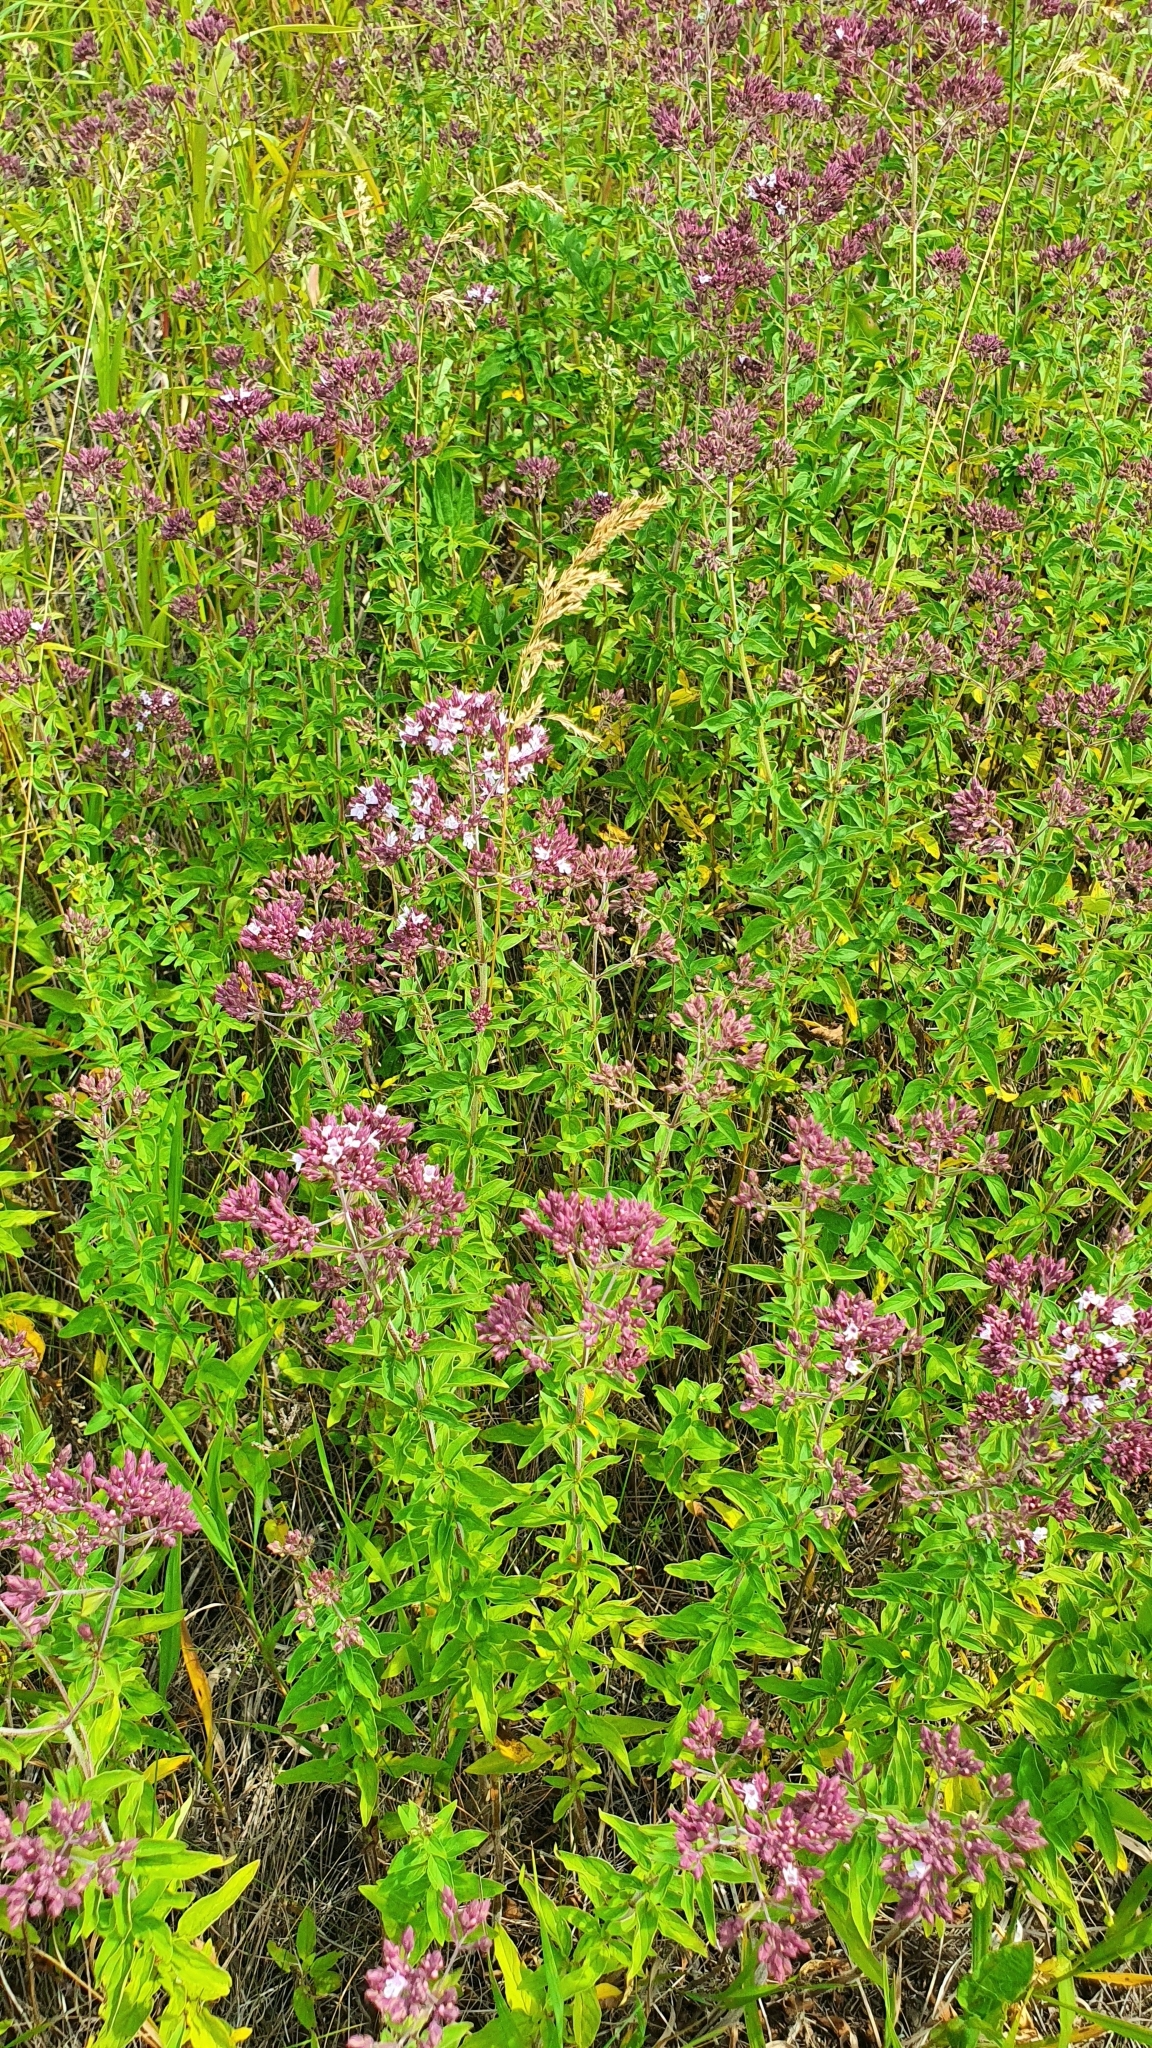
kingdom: Plantae
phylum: Tracheophyta
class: Magnoliopsida
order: Lamiales
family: Lamiaceae
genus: Origanum
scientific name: Origanum vulgare
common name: Wild marjoram
